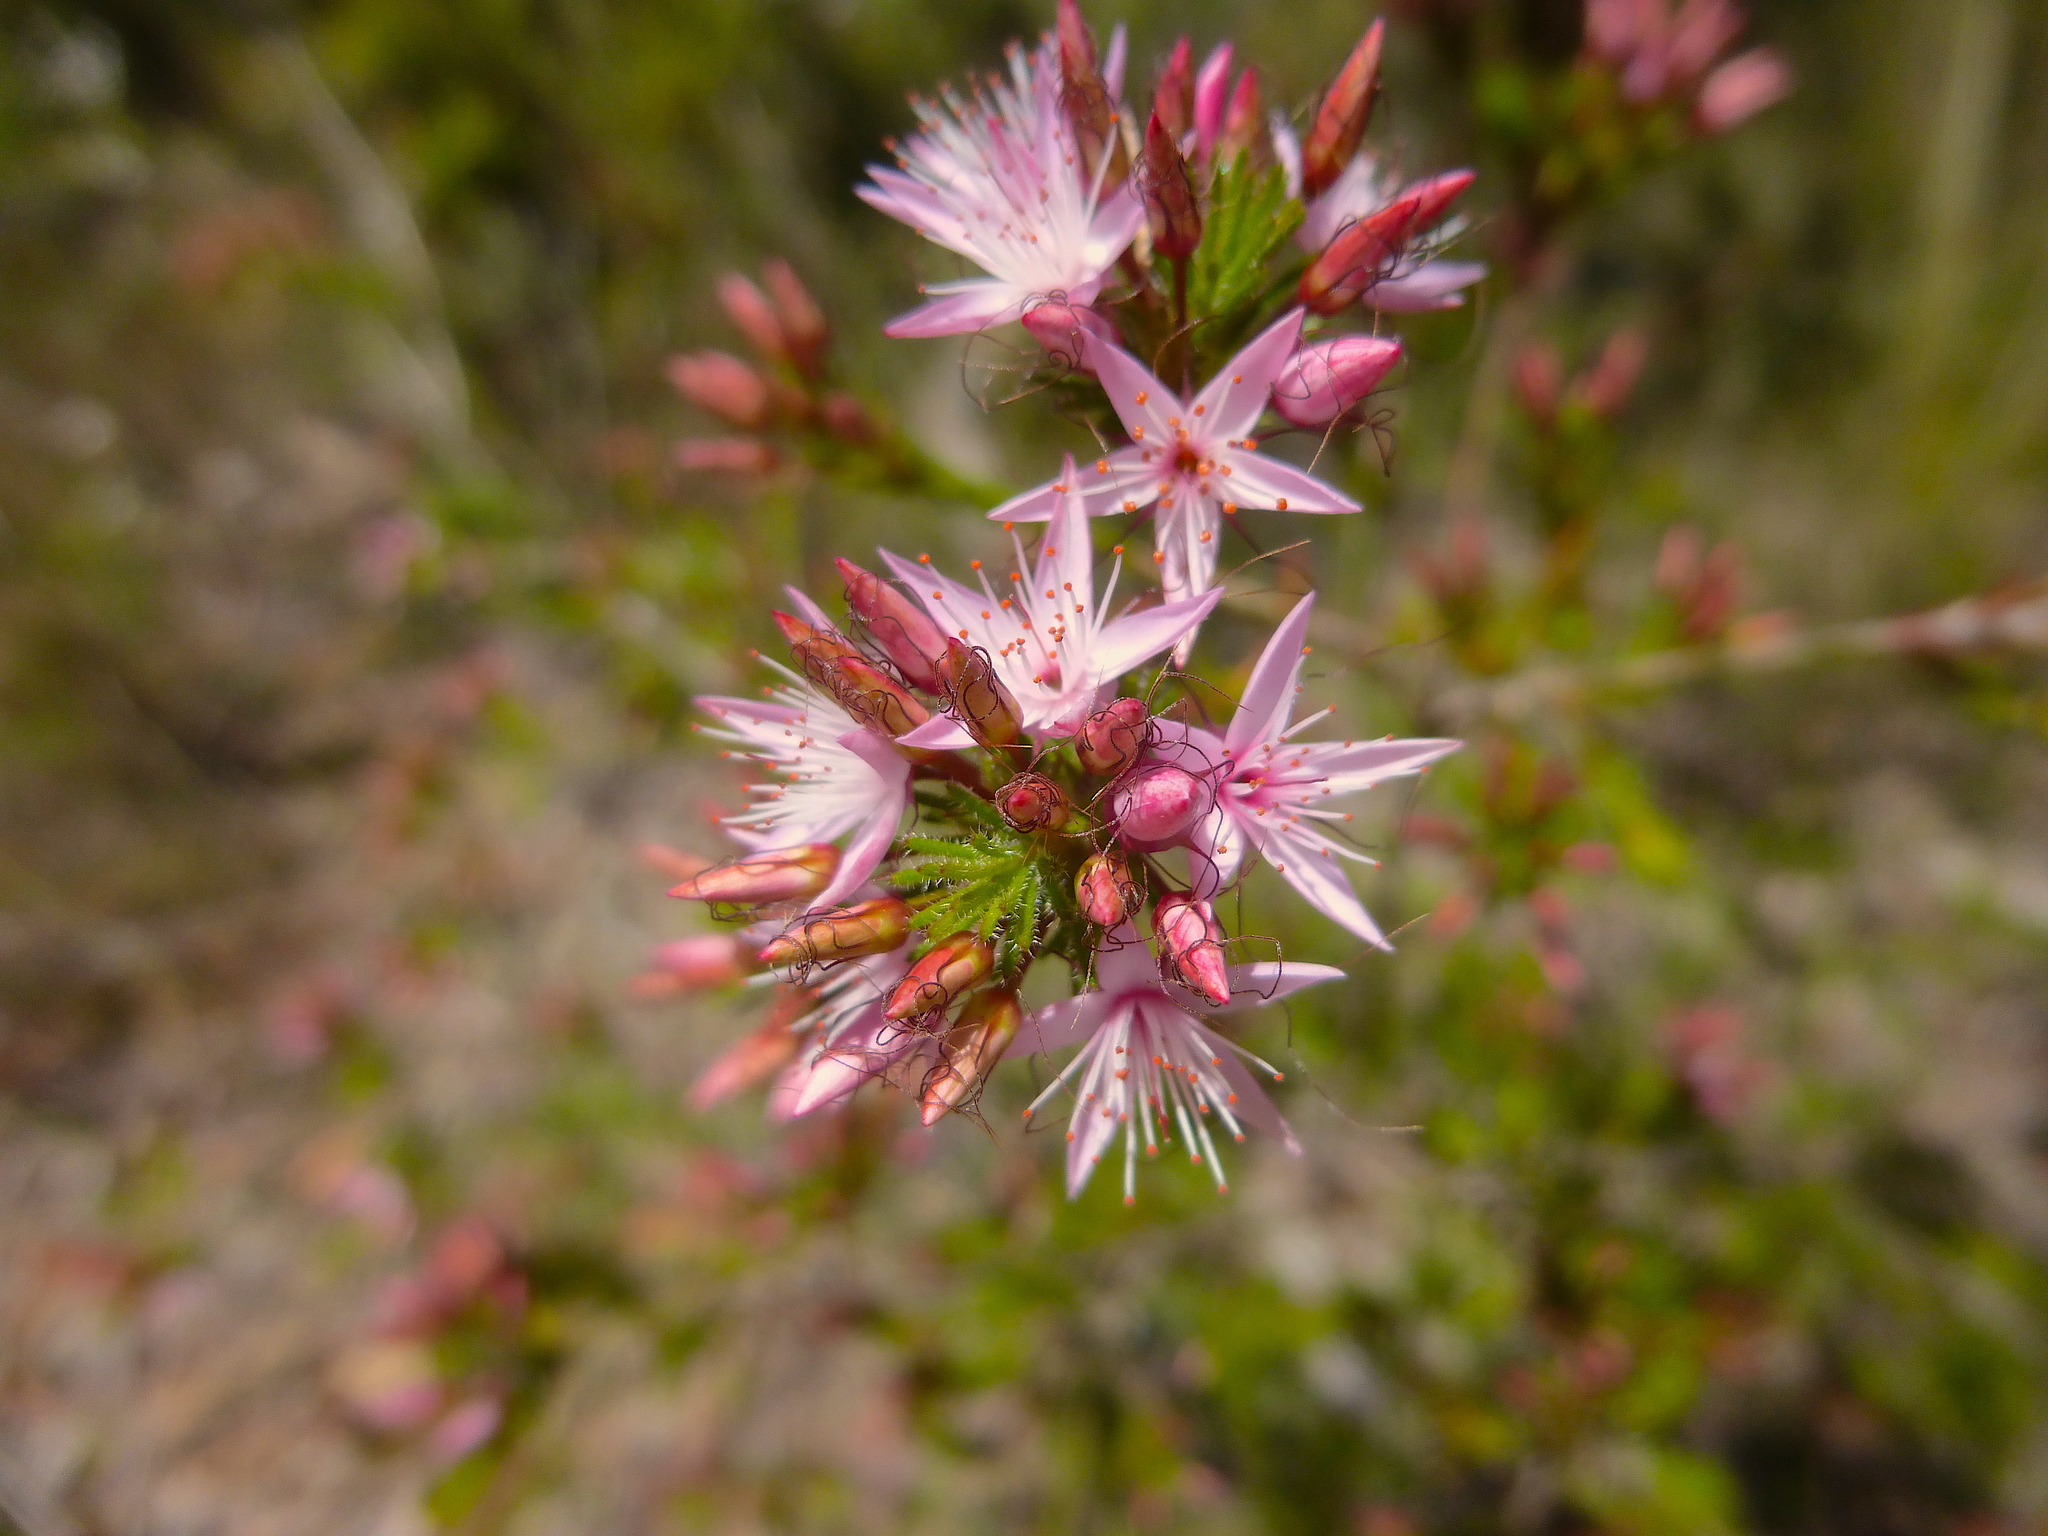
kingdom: Plantae
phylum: Tracheophyta
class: Magnoliopsida
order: Myrtales
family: Myrtaceae
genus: Calytrix
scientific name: Calytrix tetragona
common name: Common fringe myrtle
